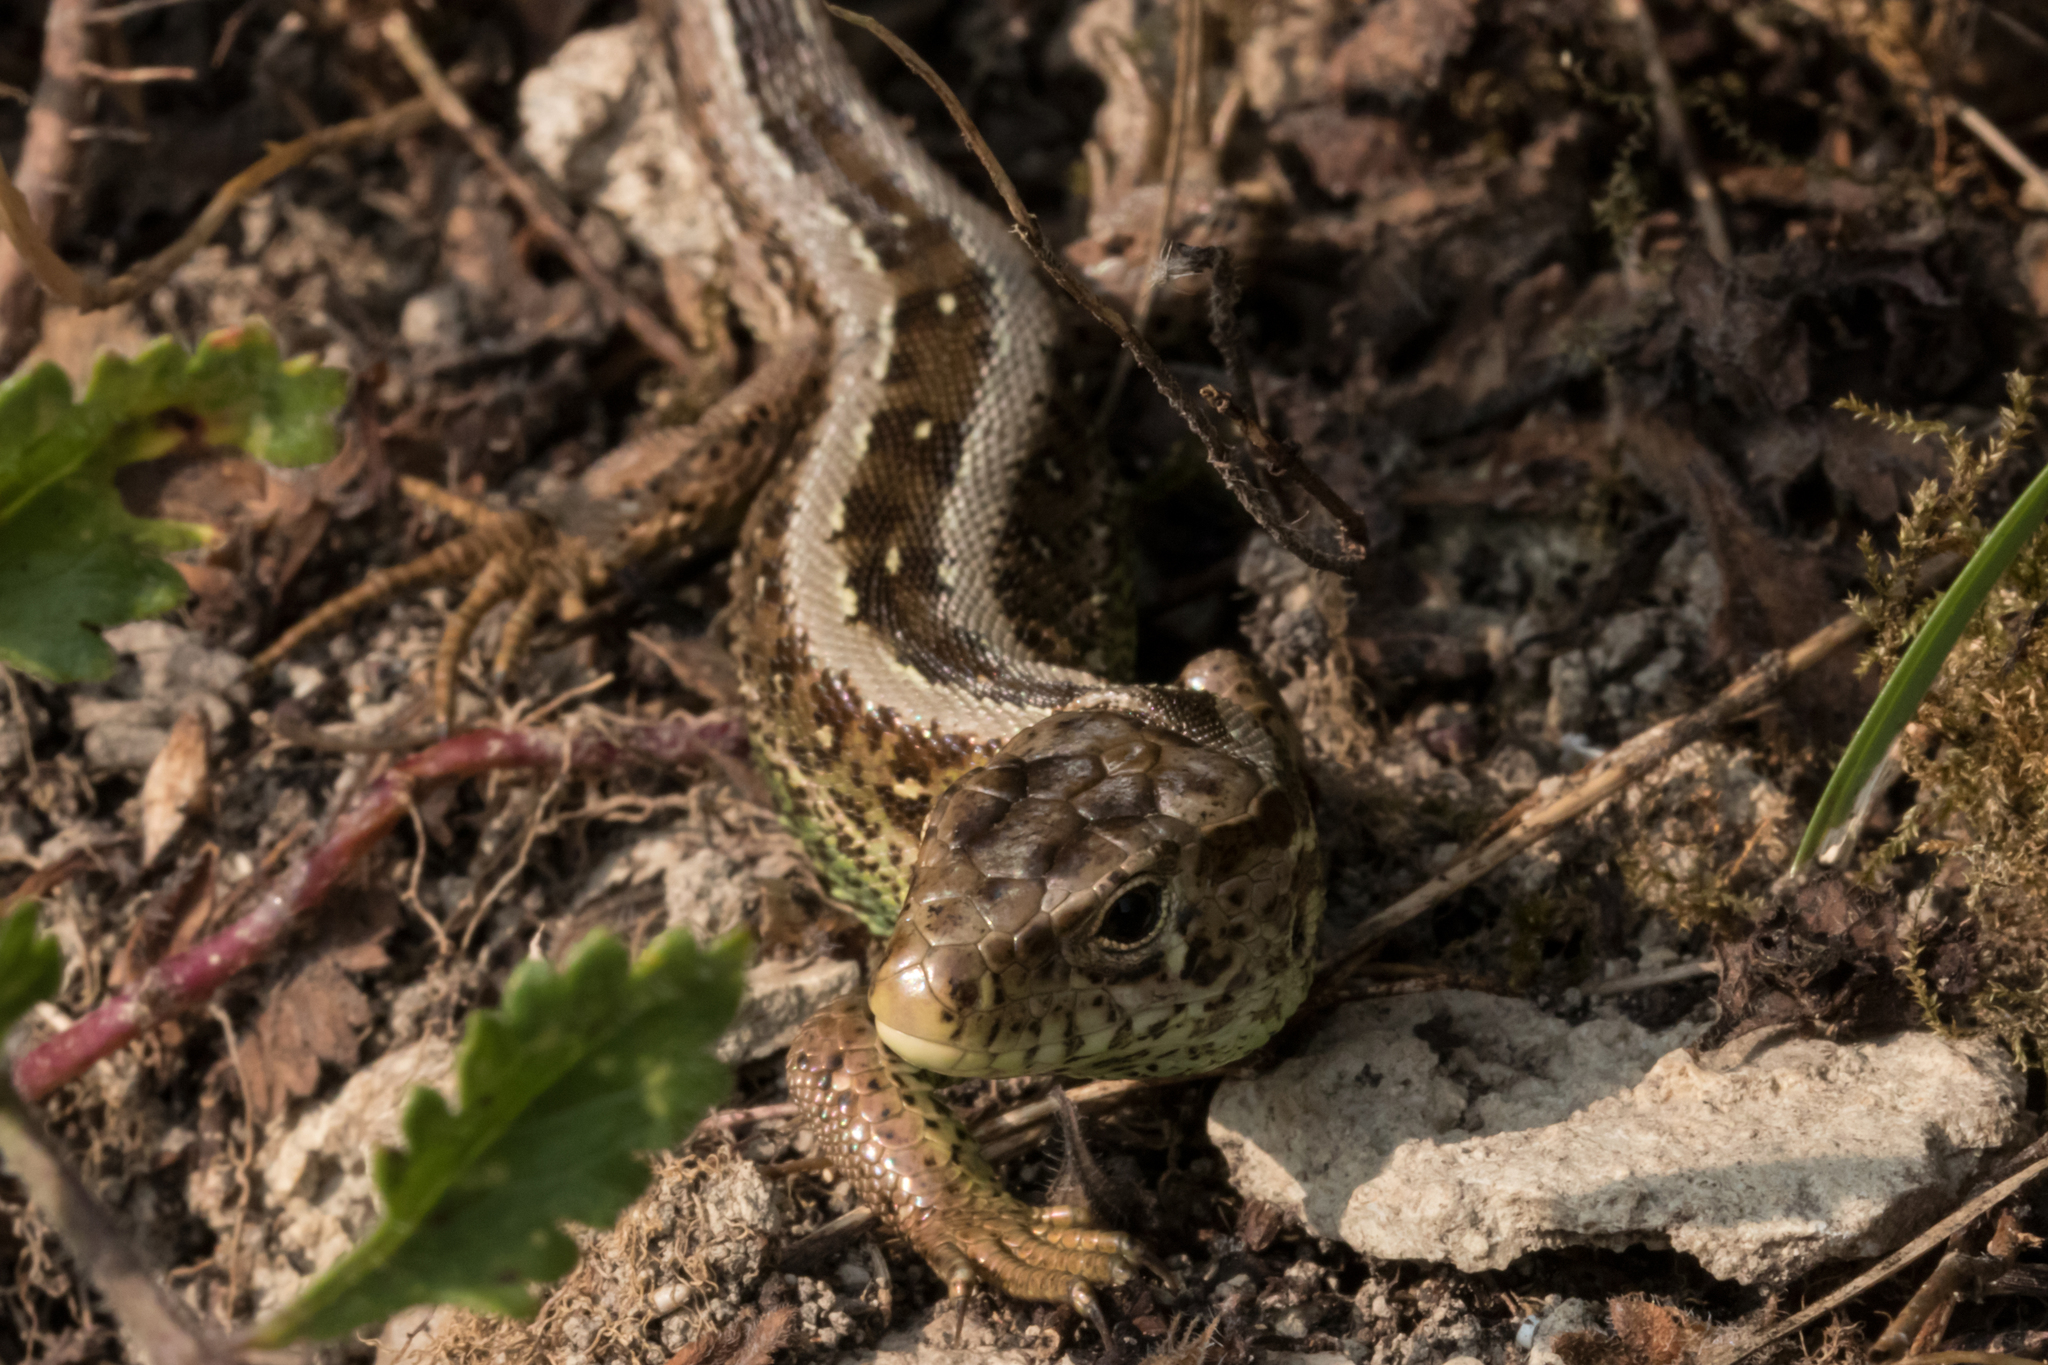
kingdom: Animalia
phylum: Chordata
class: Squamata
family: Lacertidae
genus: Lacerta
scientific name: Lacerta agilis
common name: Sand lizard
